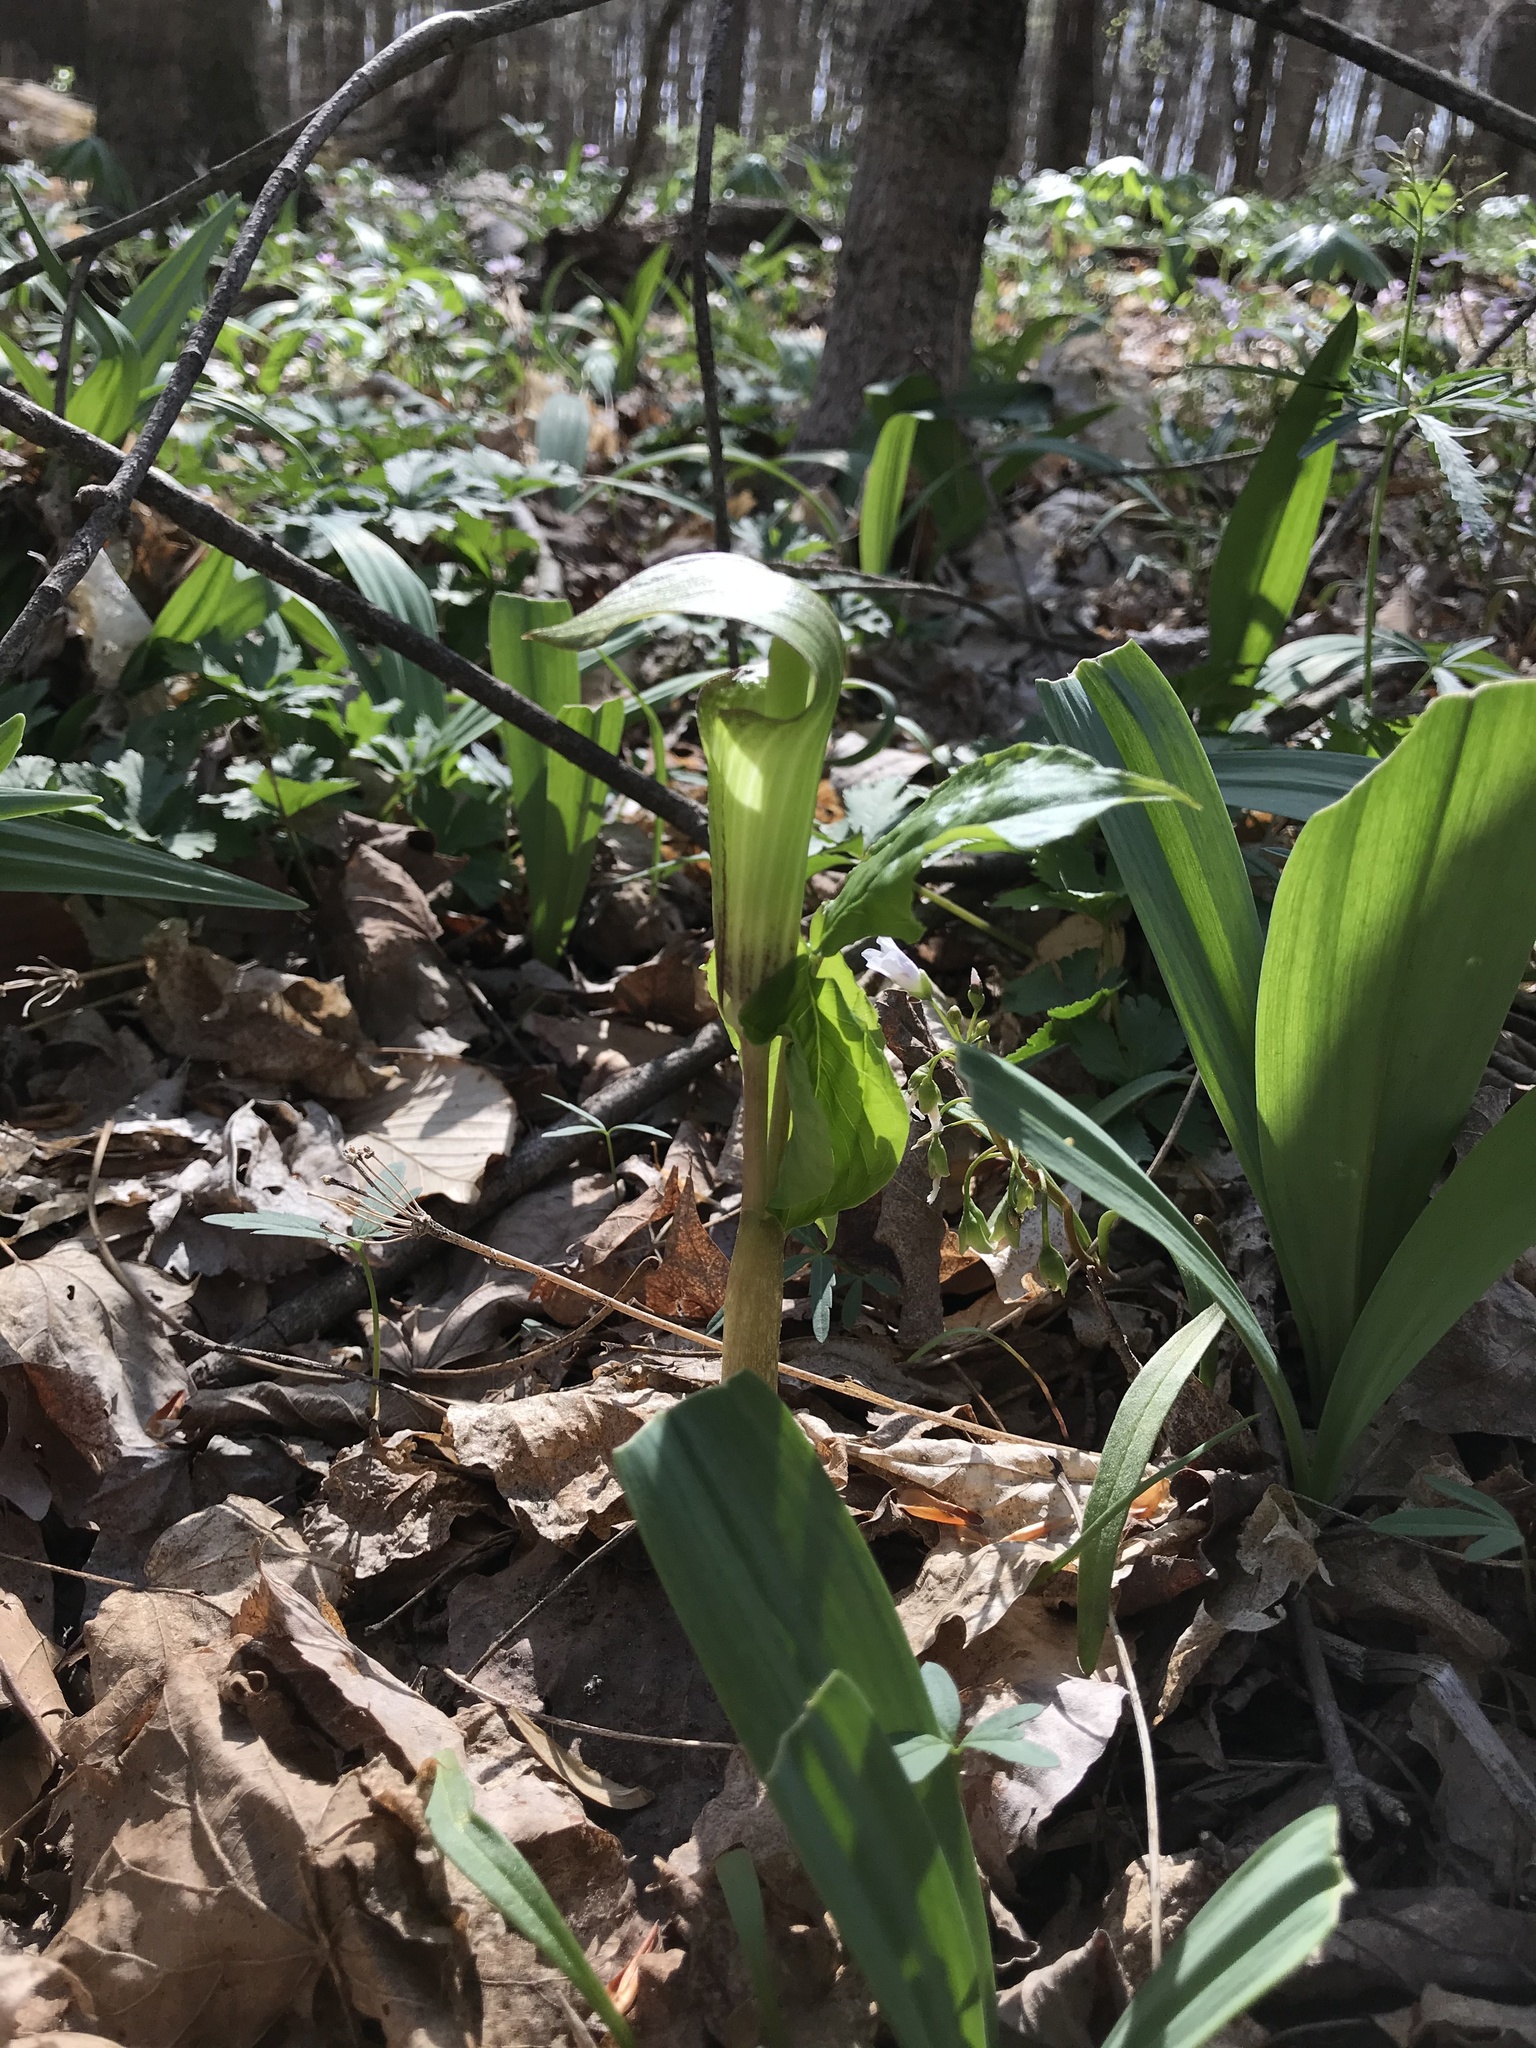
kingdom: Plantae
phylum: Tracheophyta
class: Liliopsida
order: Alismatales
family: Araceae
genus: Arisaema
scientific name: Arisaema triphyllum
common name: Jack-in-the-pulpit
